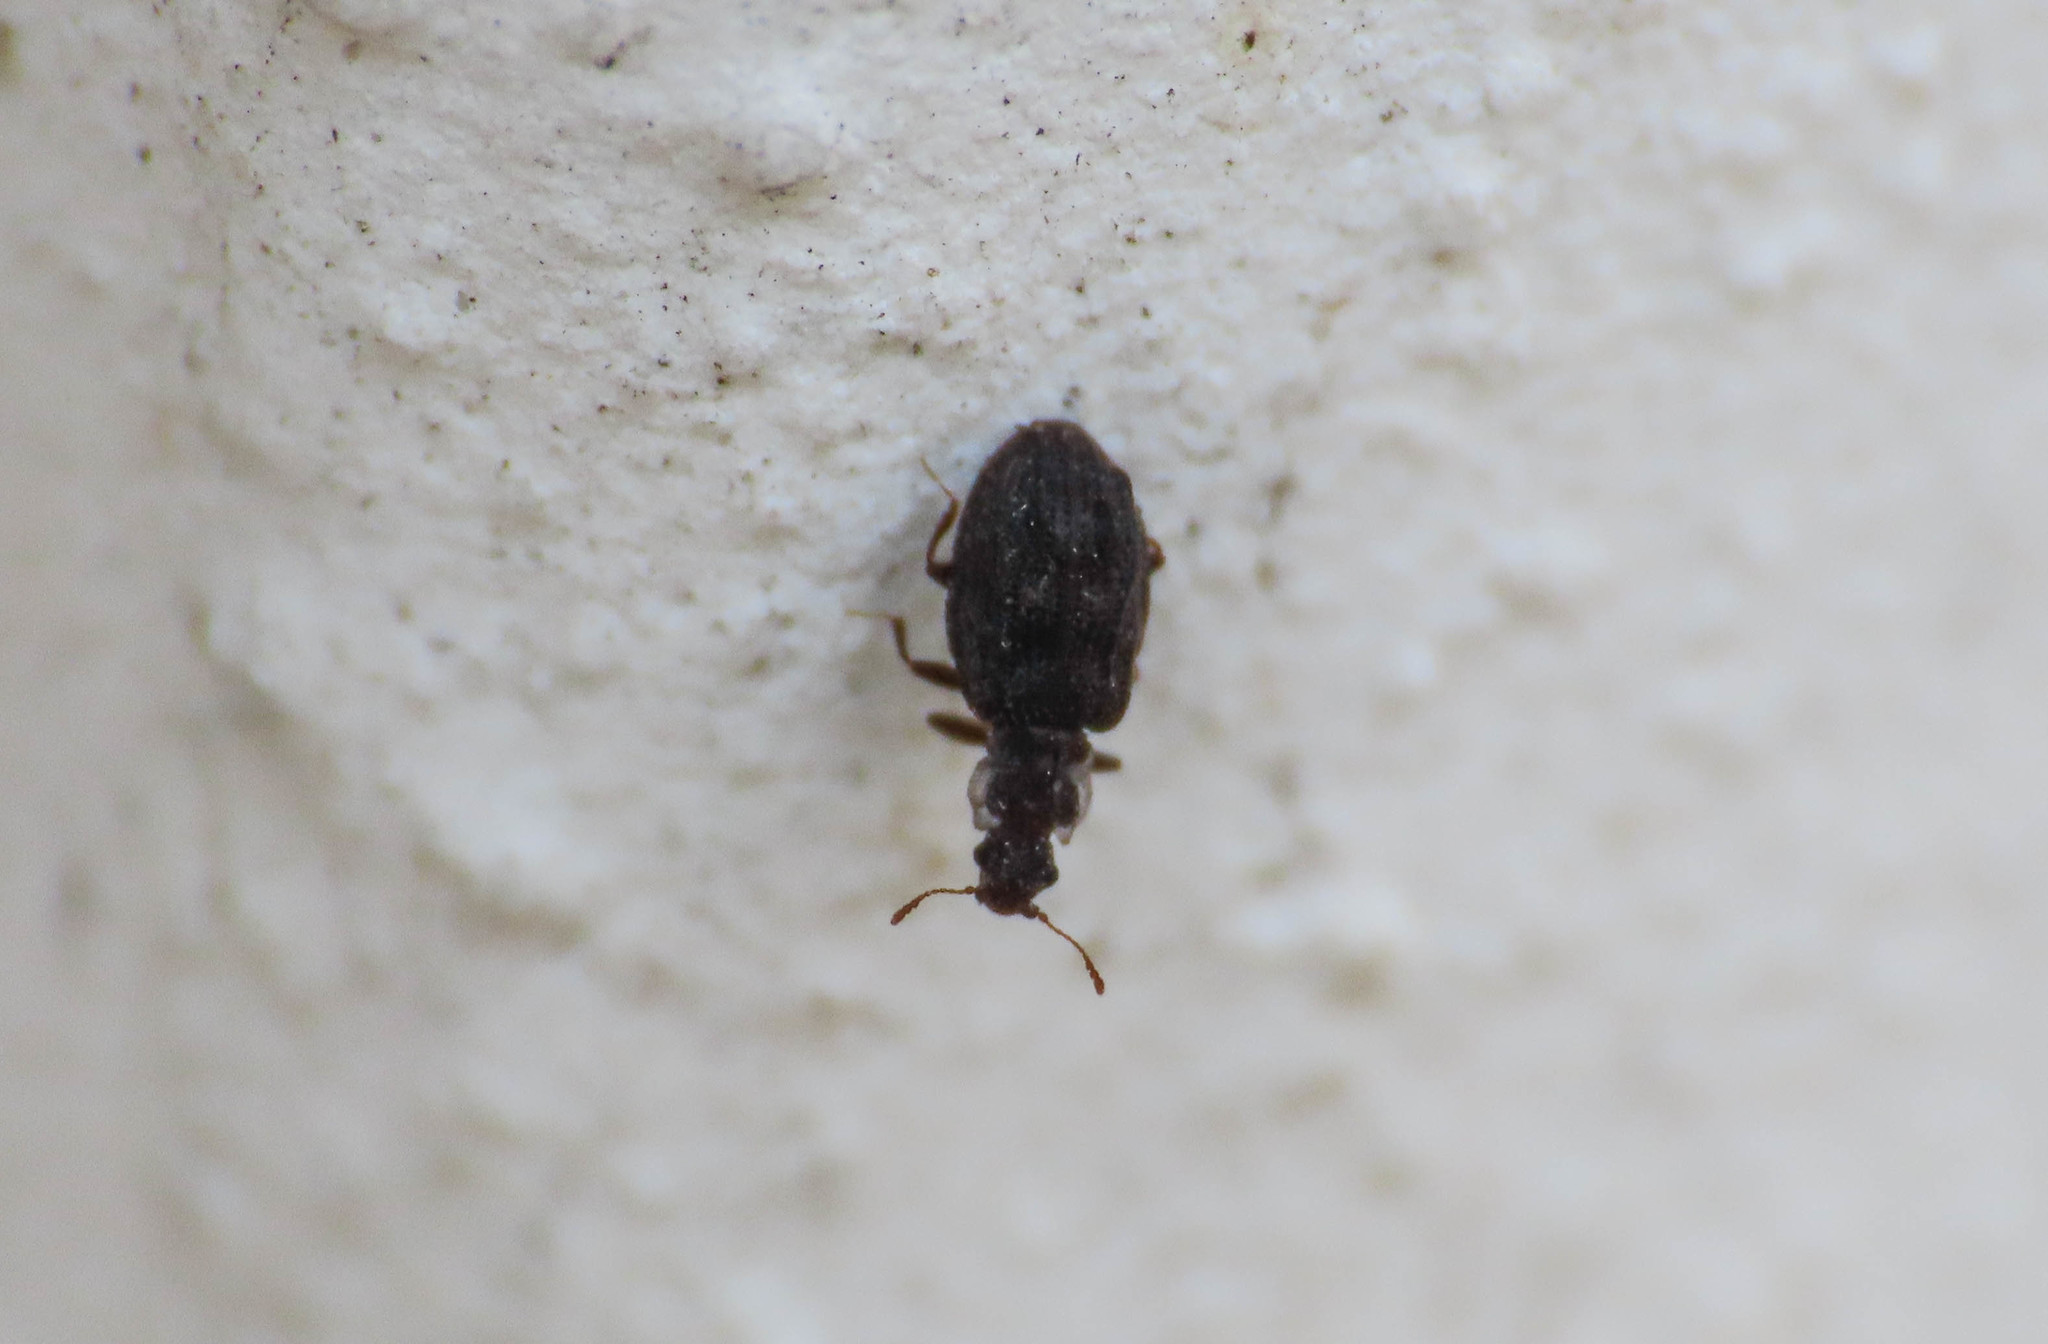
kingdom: Animalia
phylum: Arthropoda
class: Insecta
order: Coleoptera
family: Latridiidae
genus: Cartodere
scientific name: Cartodere nodifer
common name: Humpbacked minute scavenger beetle
